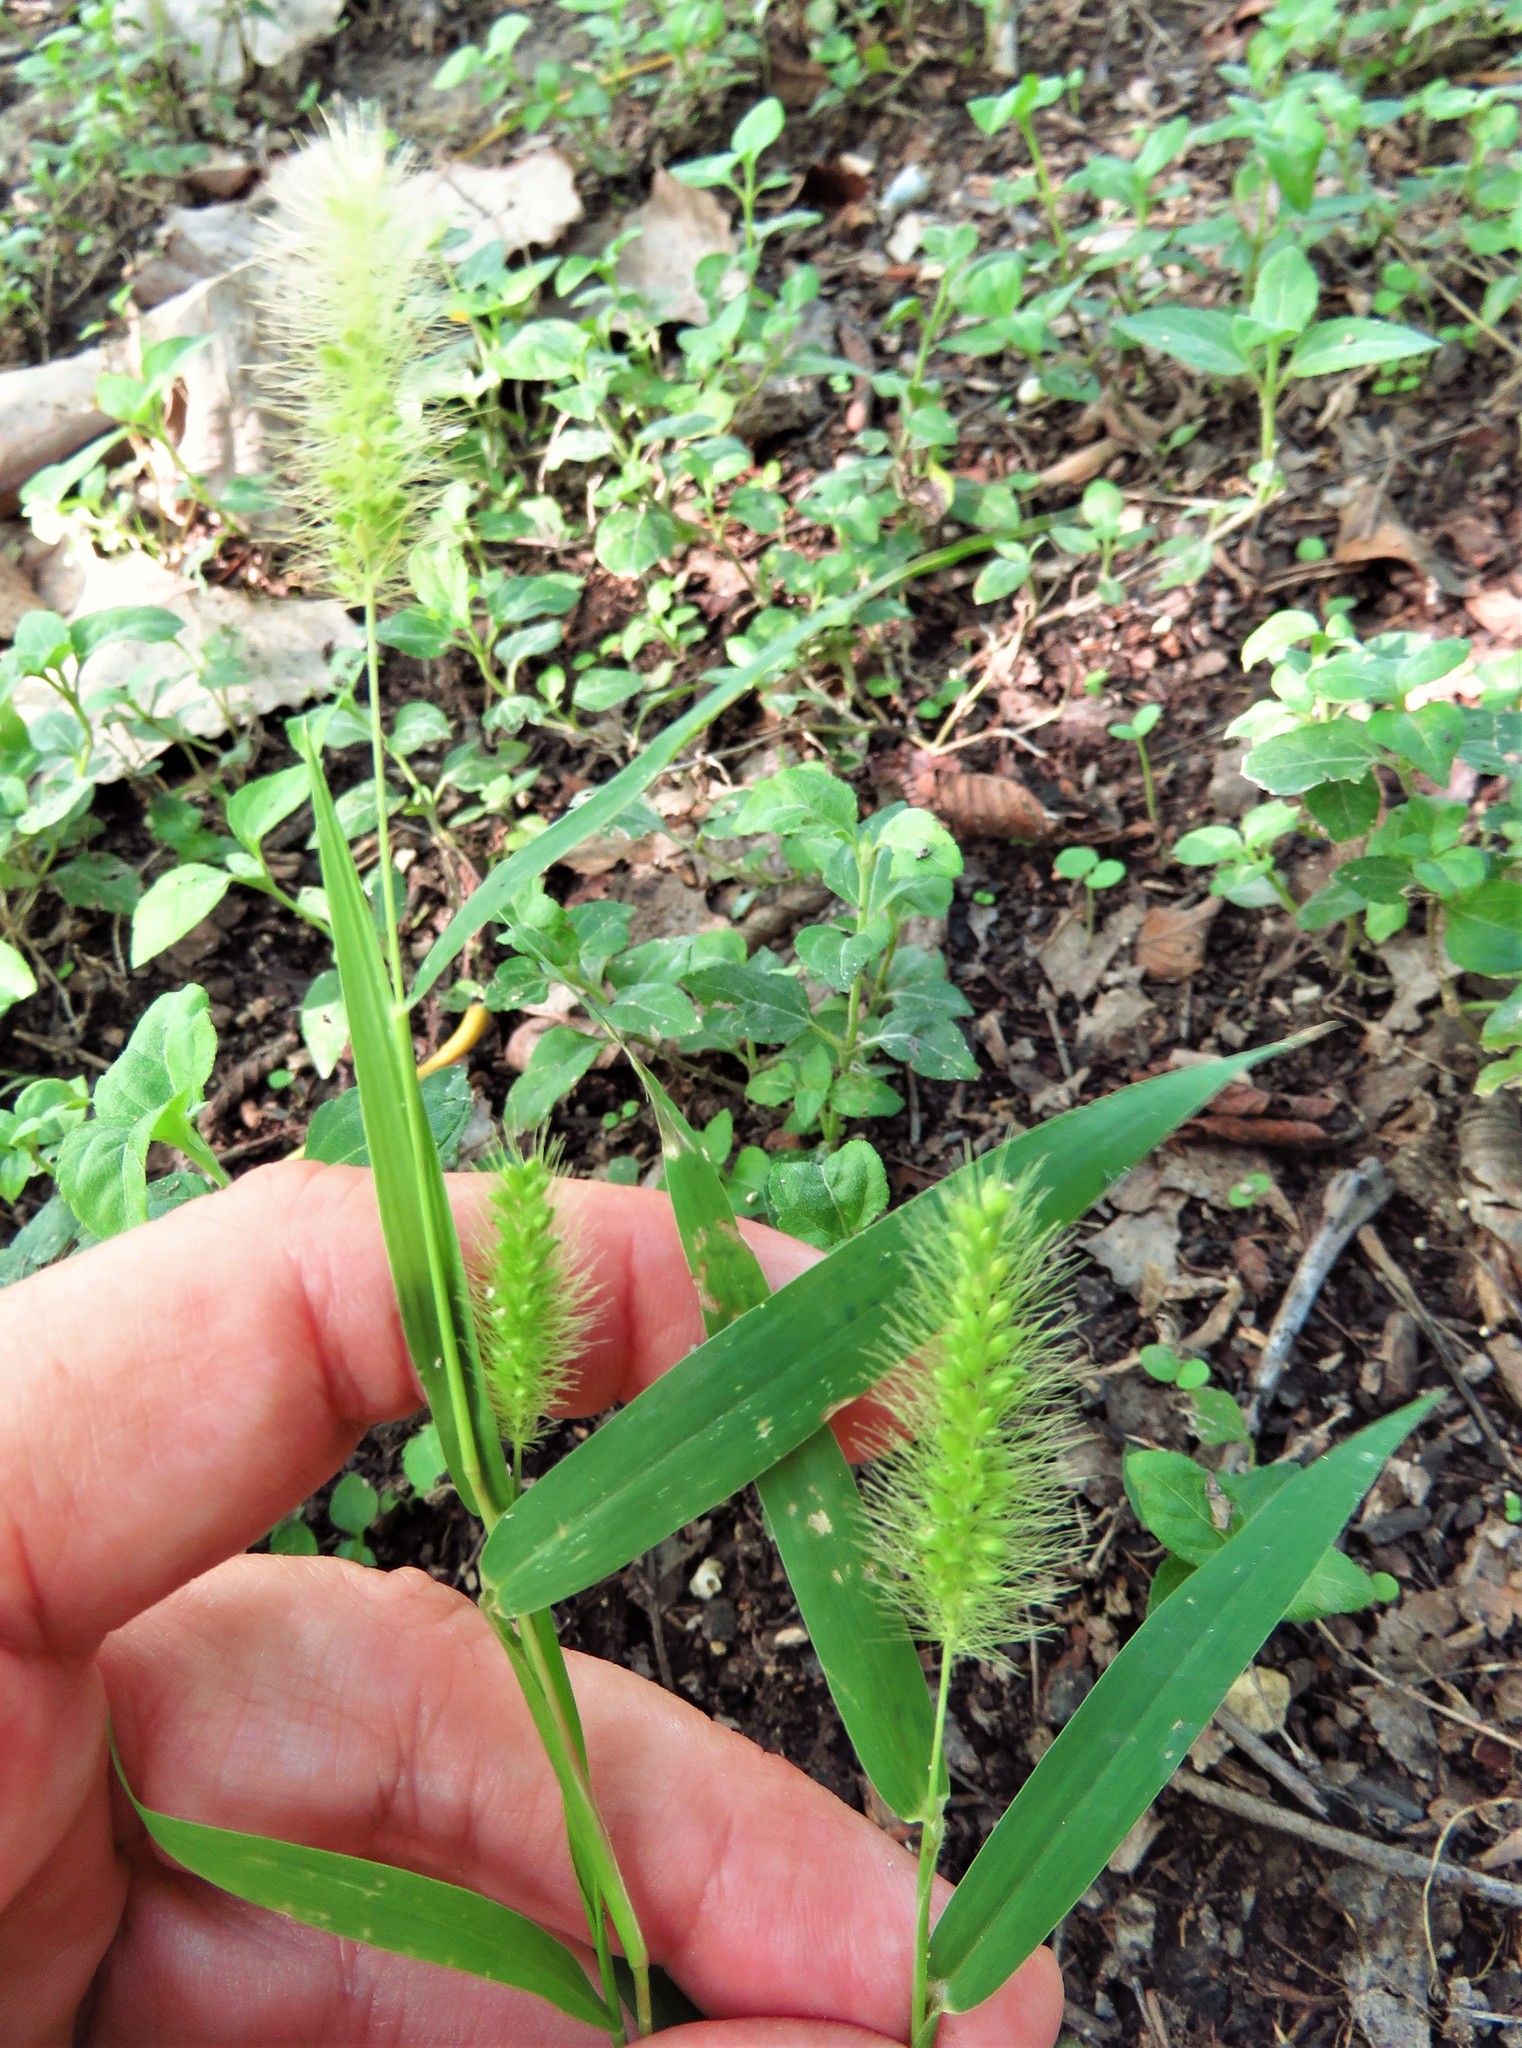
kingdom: Plantae
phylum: Tracheophyta
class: Liliopsida
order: Poales
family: Poaceae
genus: Setaria
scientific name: Setaria viridis
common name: Green bristlegrass
